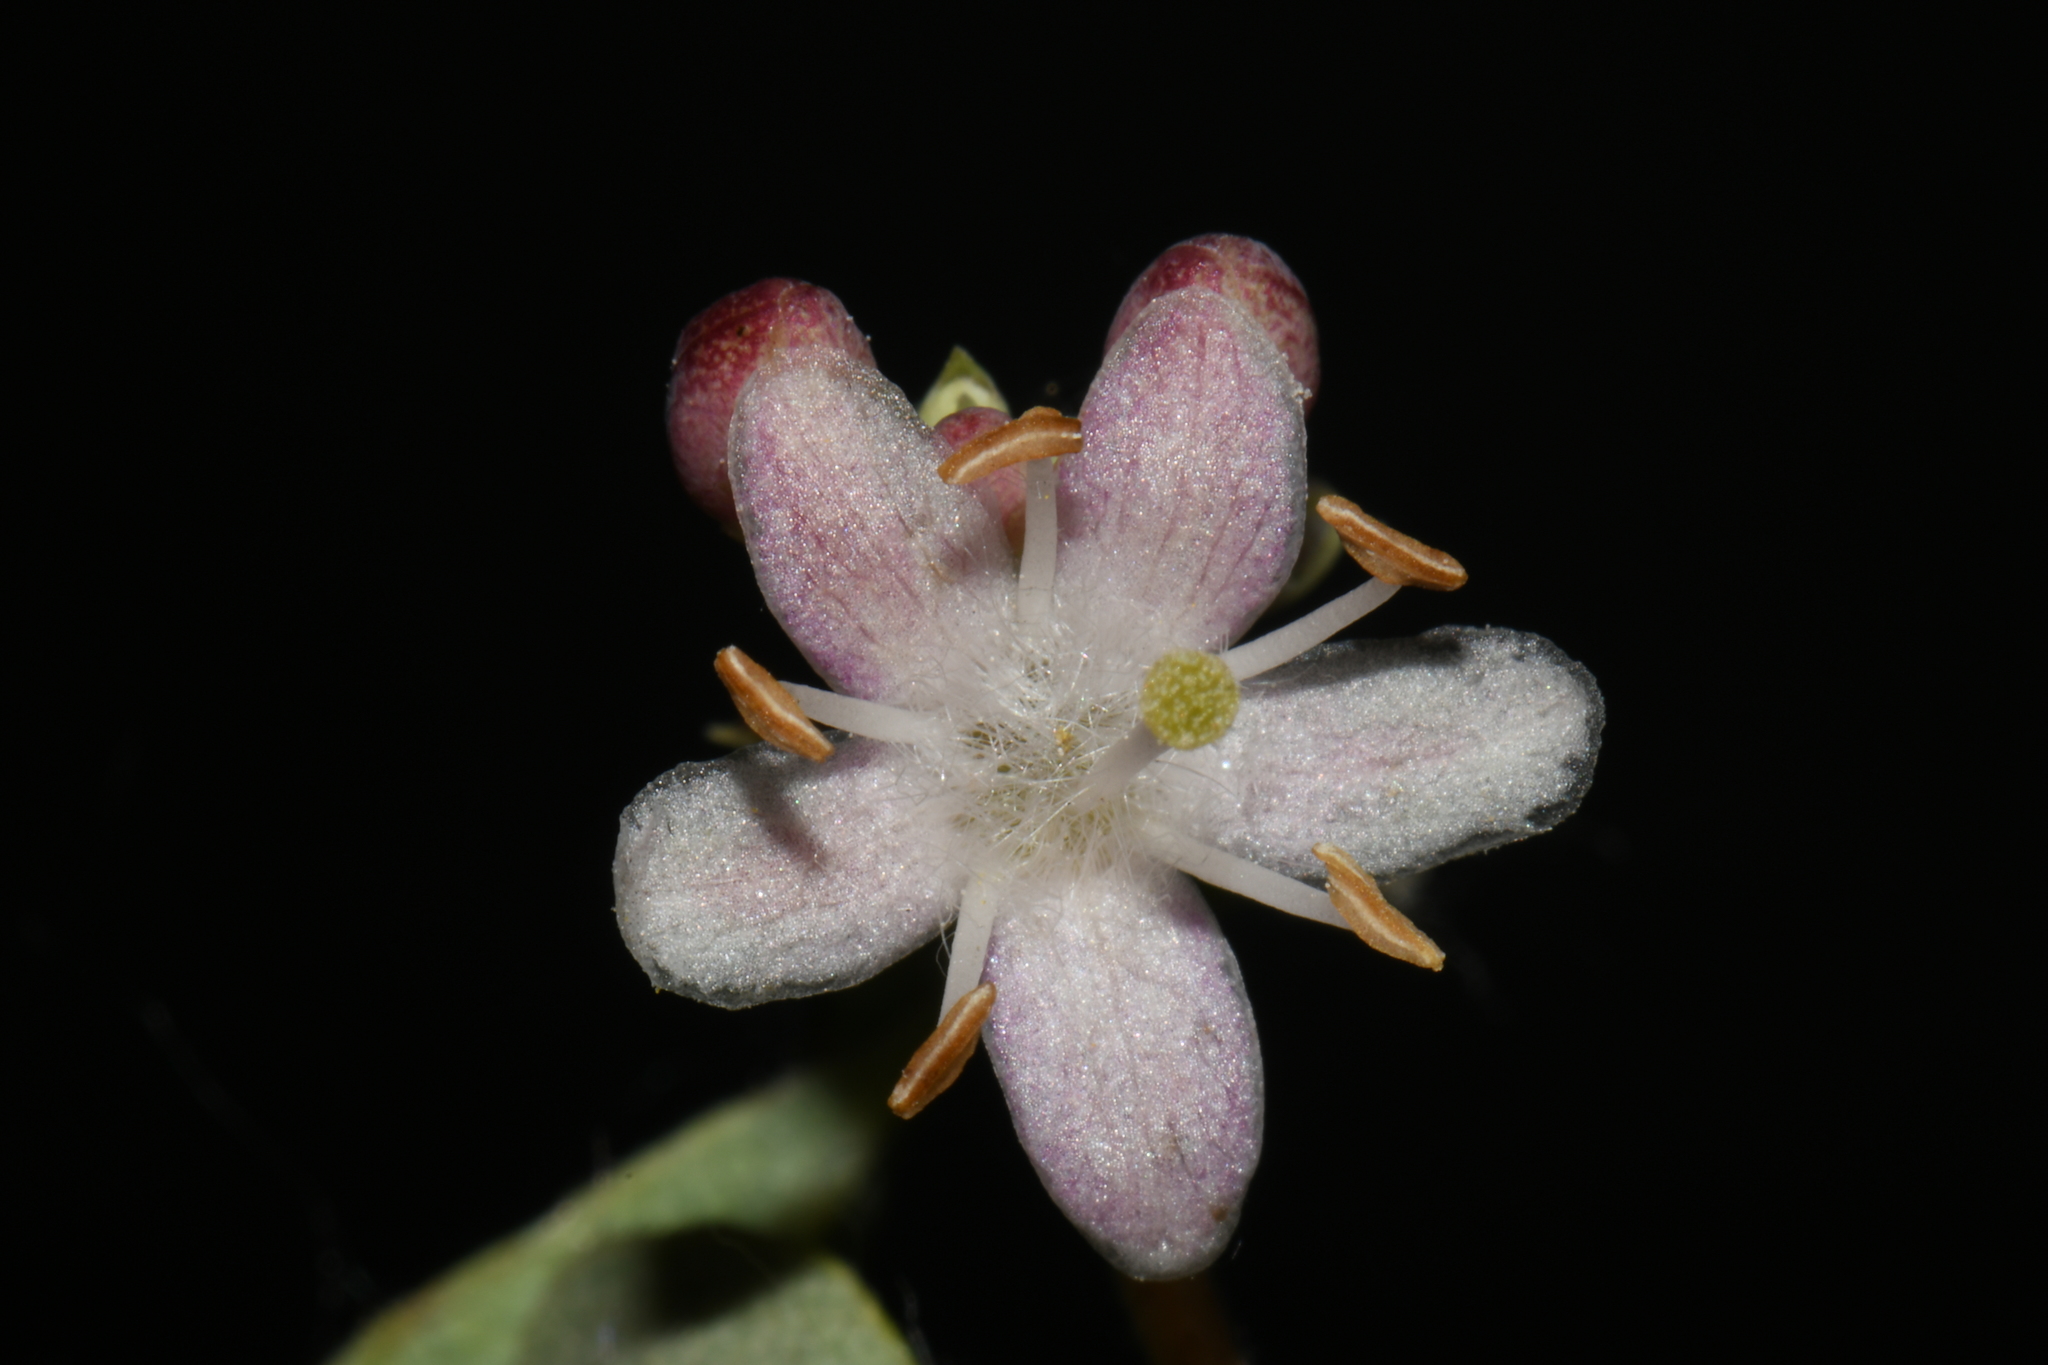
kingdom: Plantae
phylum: Tracheophyta
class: Magnoliopsida
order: Dipsacales
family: Caprifoliaceae
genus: Symphoricarpos
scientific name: Symphoricarpos occidentalis
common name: Wolfberry
